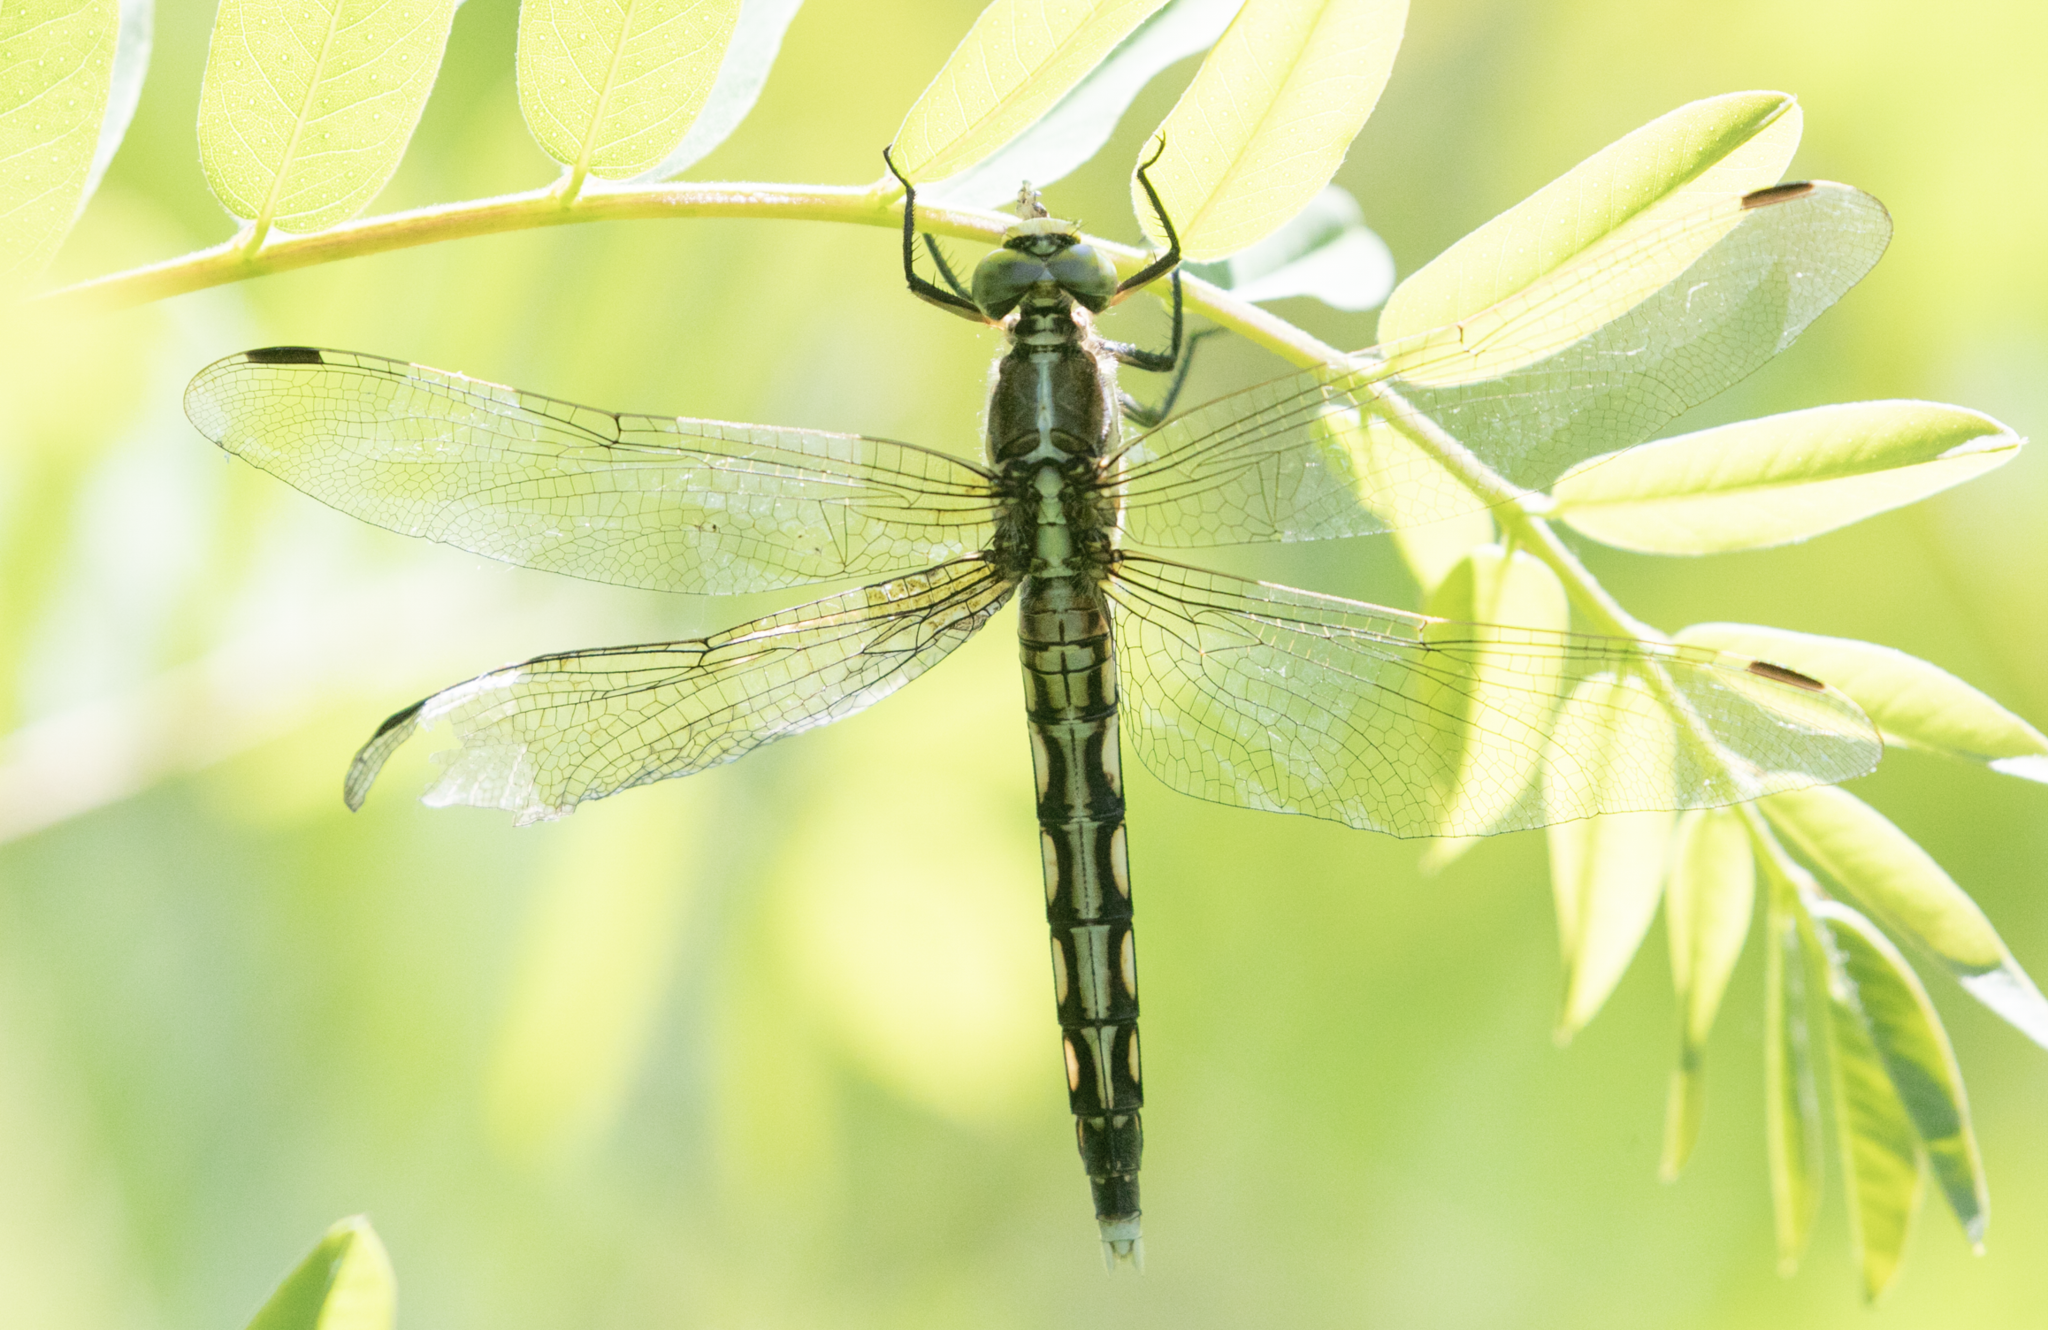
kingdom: Animalia
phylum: Arthropoda
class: Insecta
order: Odonata
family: Libellulidae
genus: Orthetrum
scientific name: Orthetrum albistylum
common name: White-tailed skimmer
